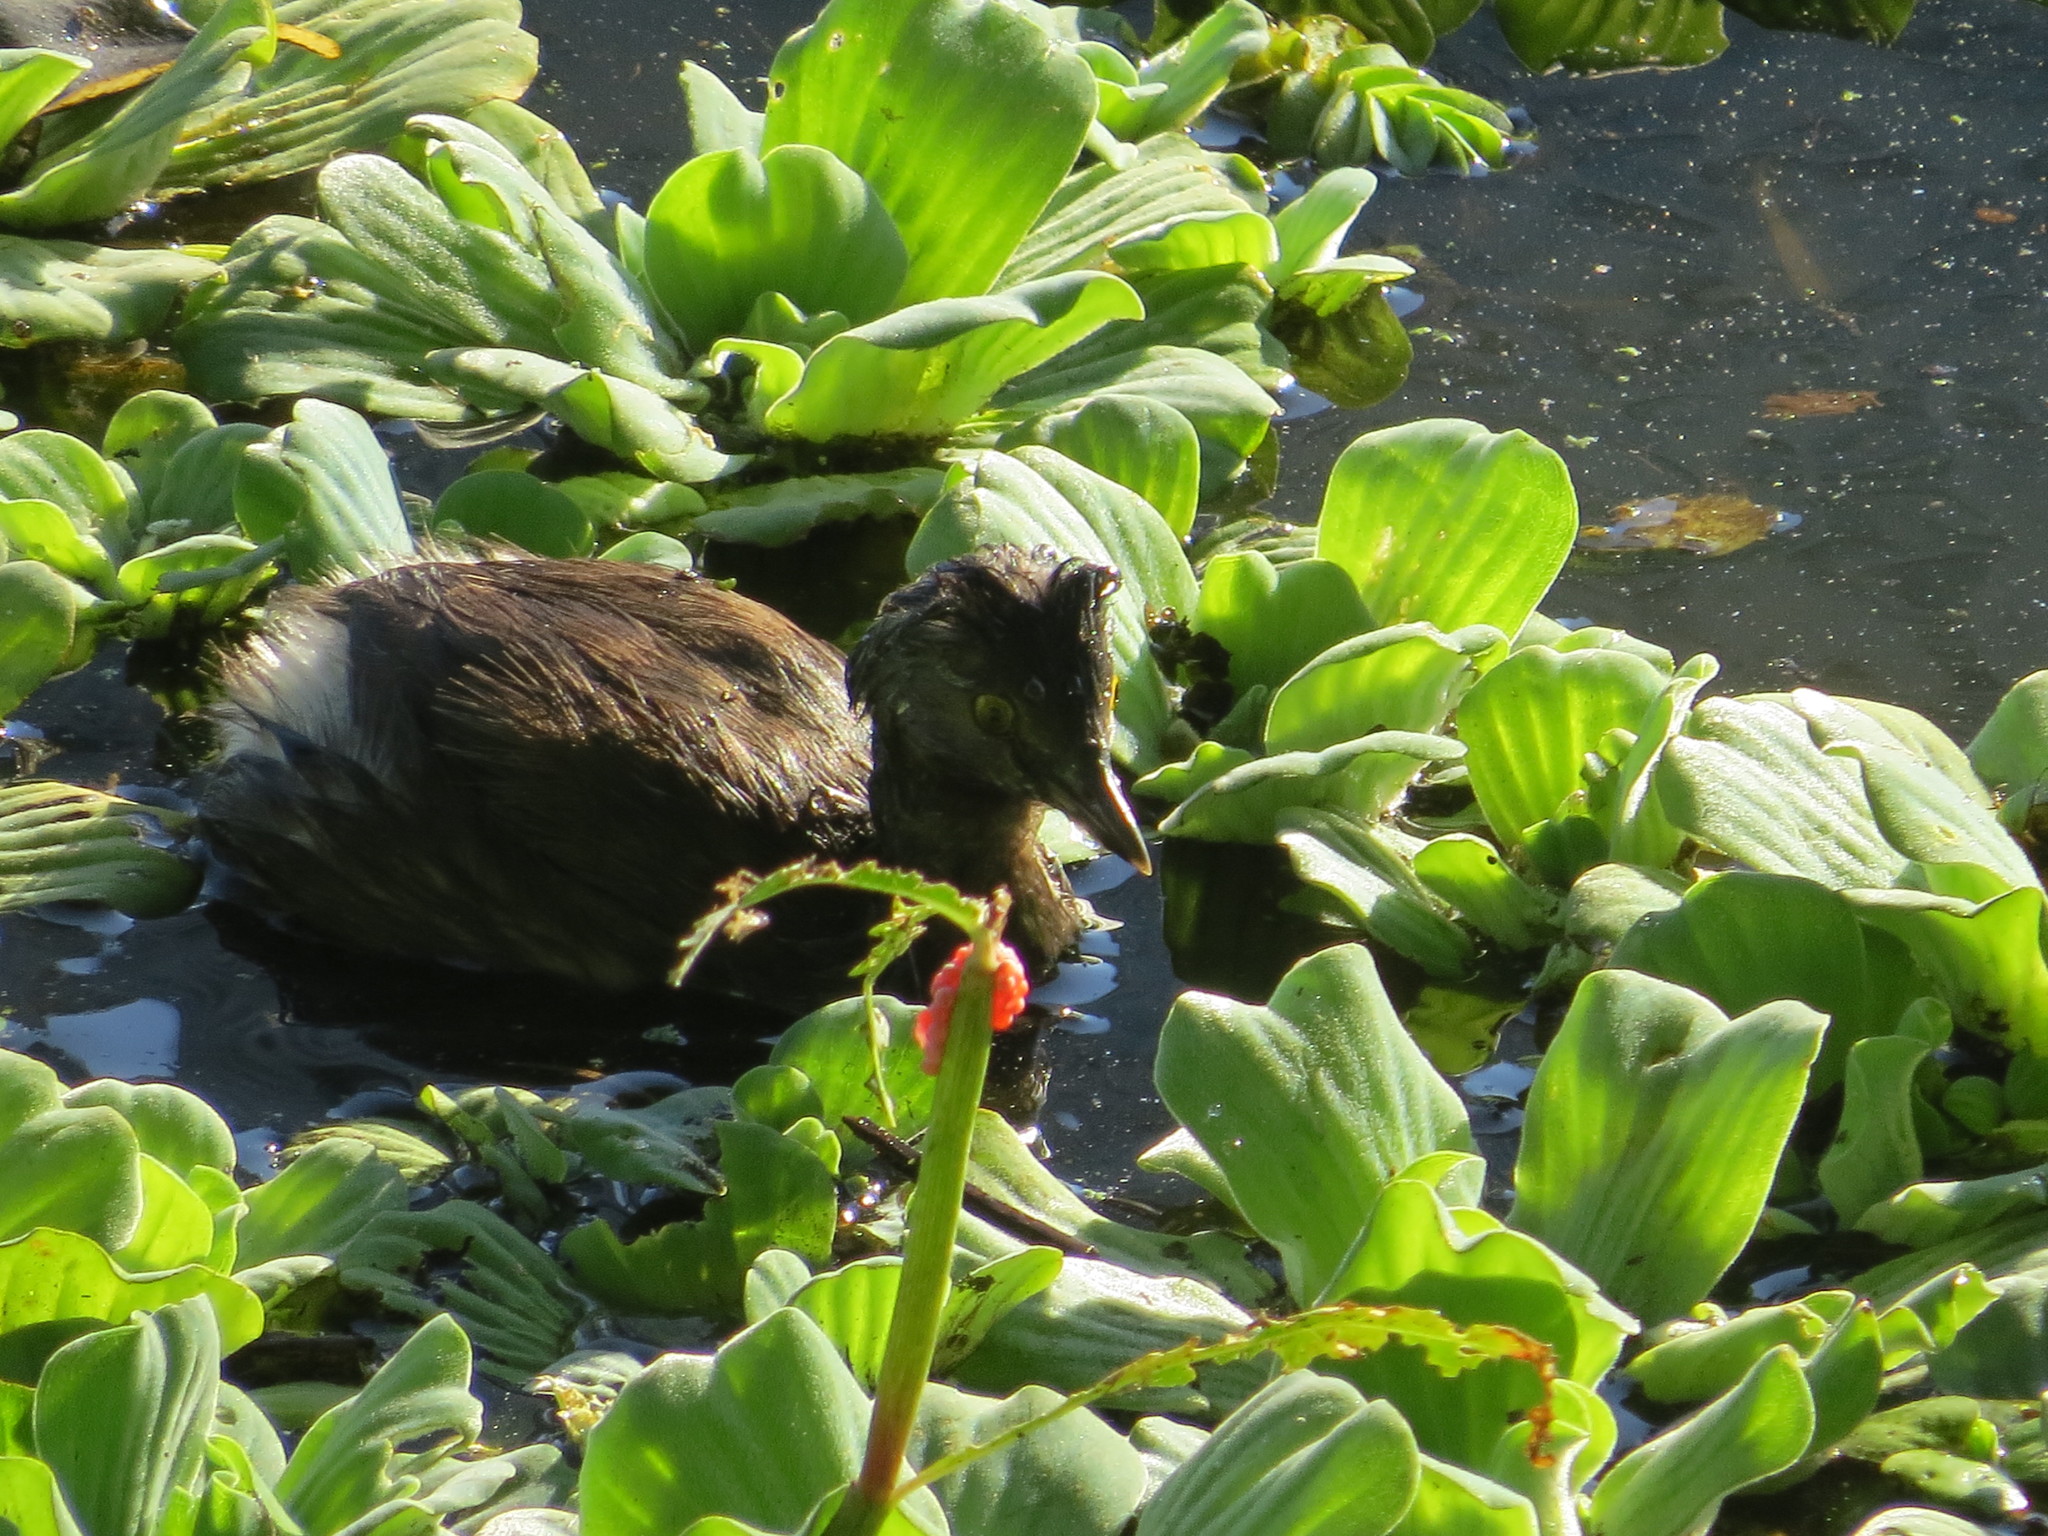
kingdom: Animalia
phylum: Chordata
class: Aves
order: Podicipediformes
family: Podicipedidae
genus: Tachybaptus
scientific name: Tachybaptus dominicus
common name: Least grebe
